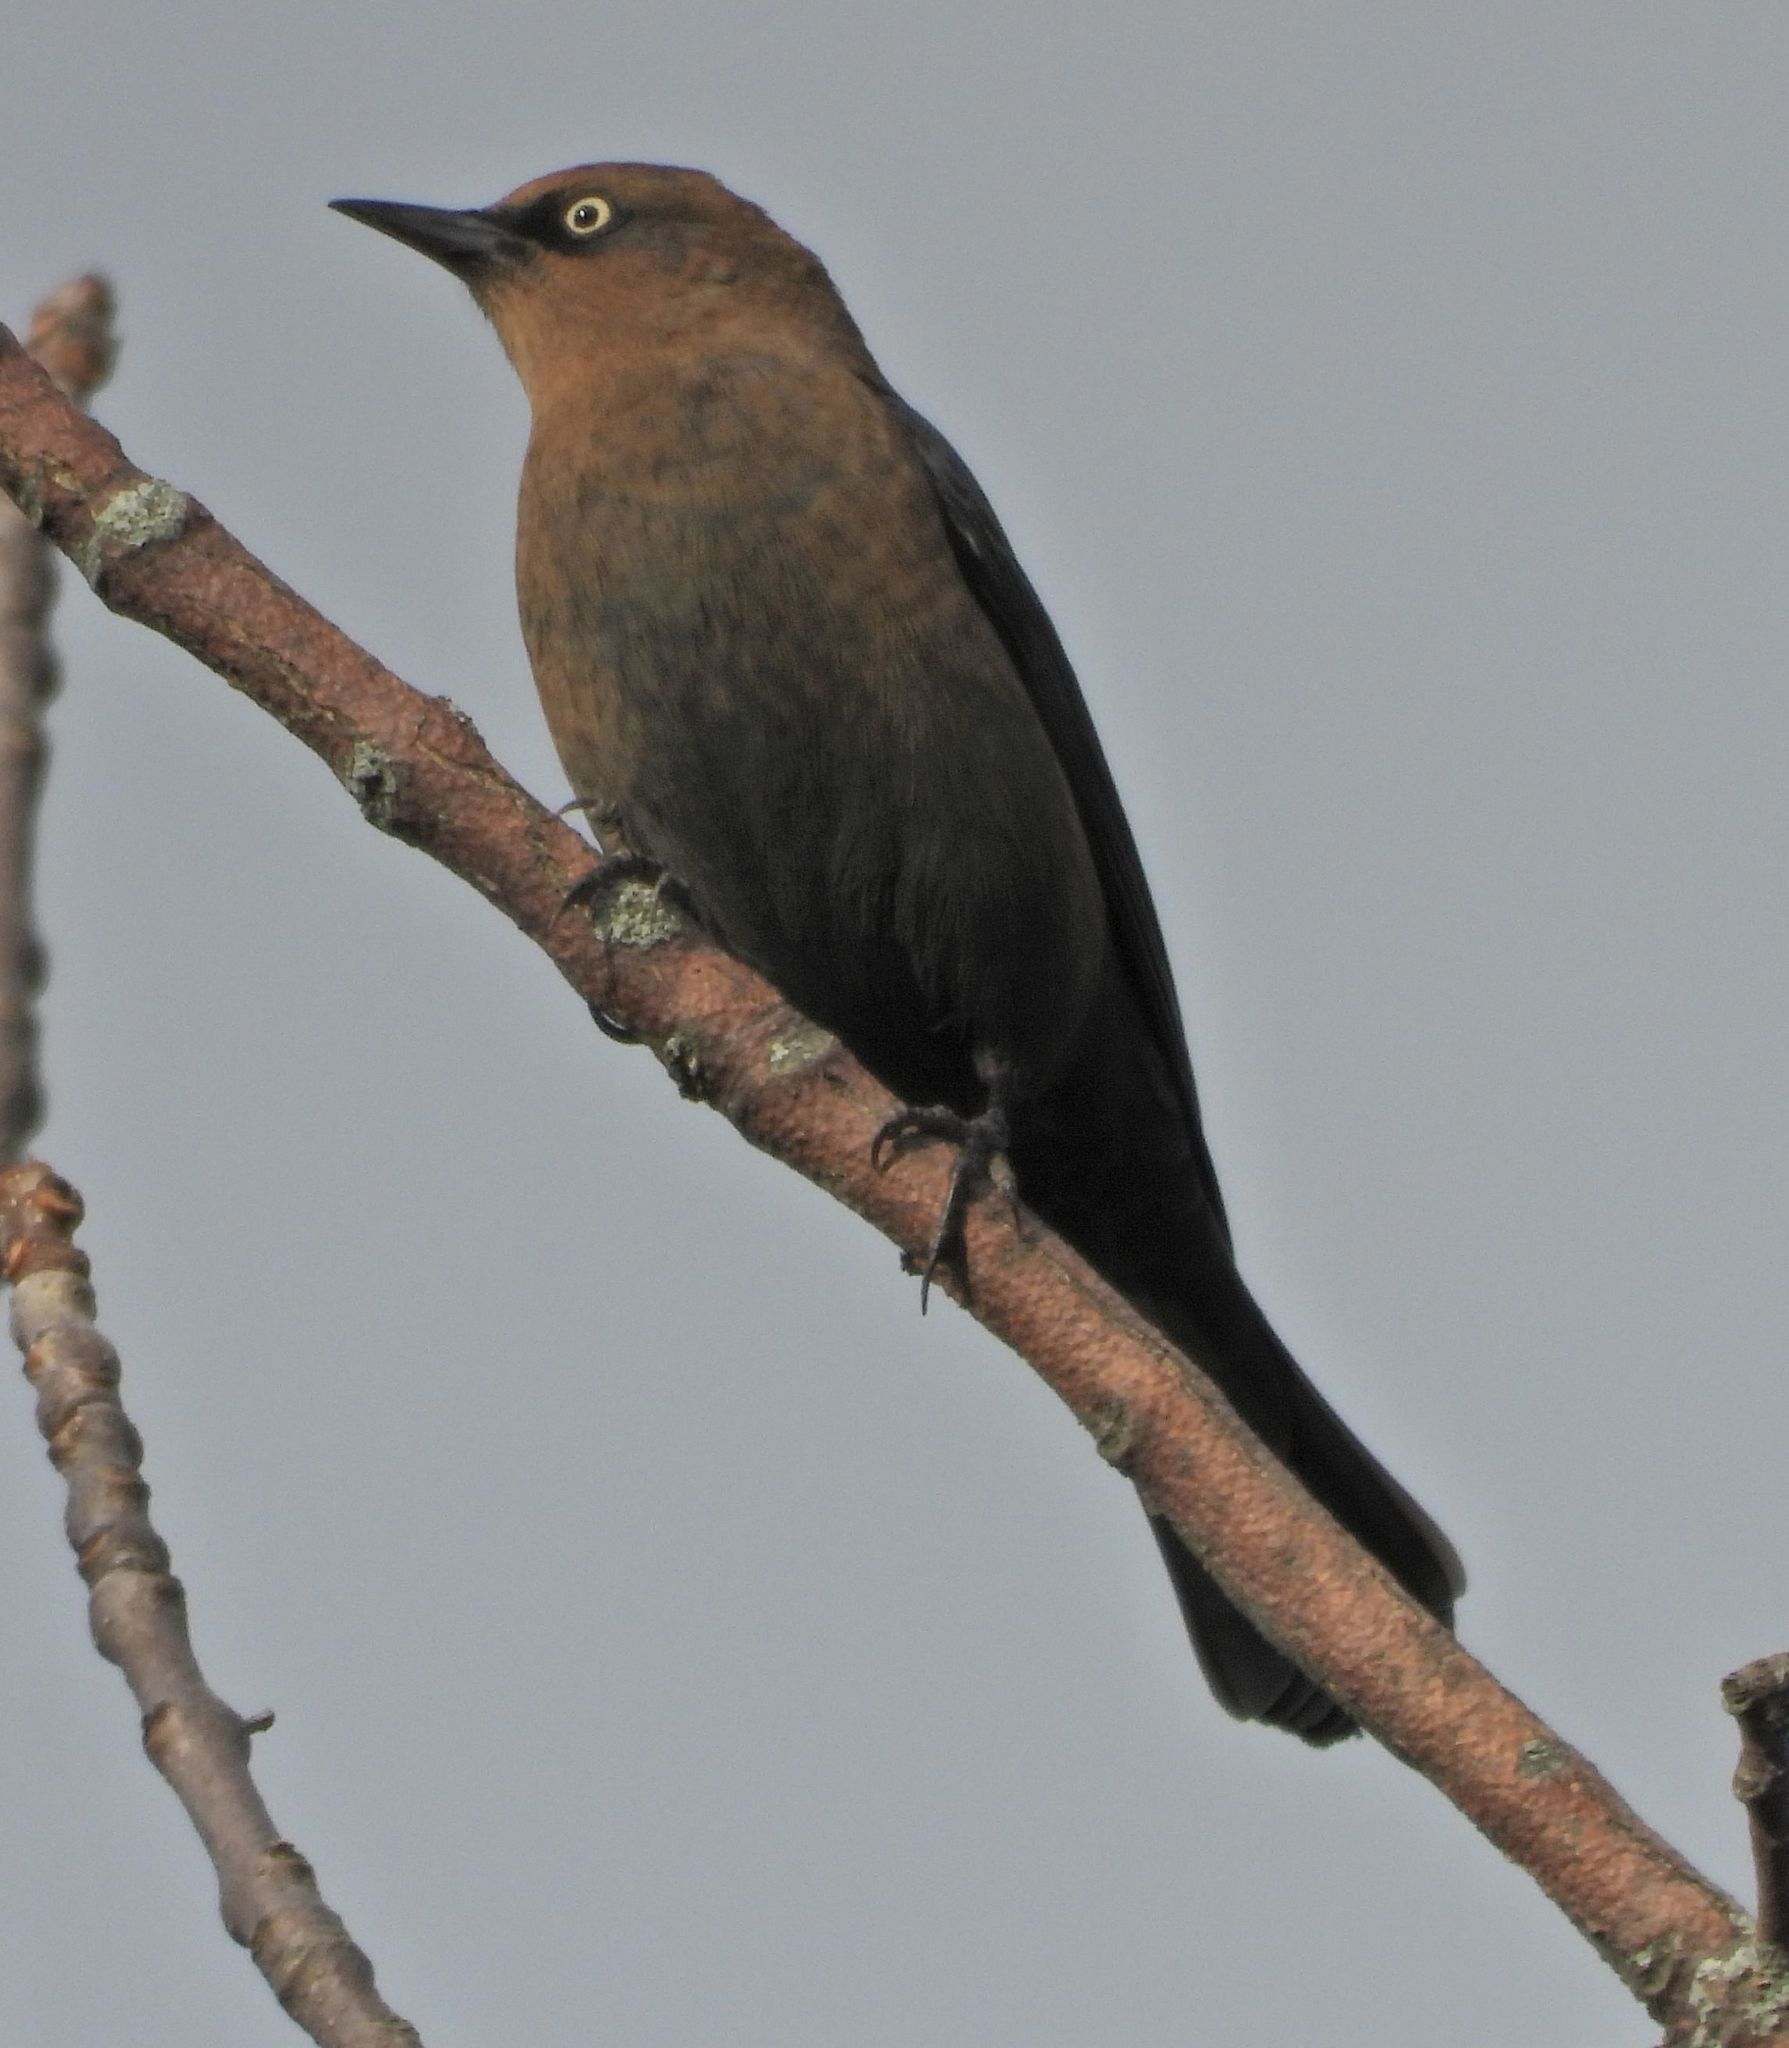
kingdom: Animalia
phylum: Chordata
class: Aves
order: Passeriformes
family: Icteridae
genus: Euphagus
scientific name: Euphagus carolinus
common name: Rusty blackbird
